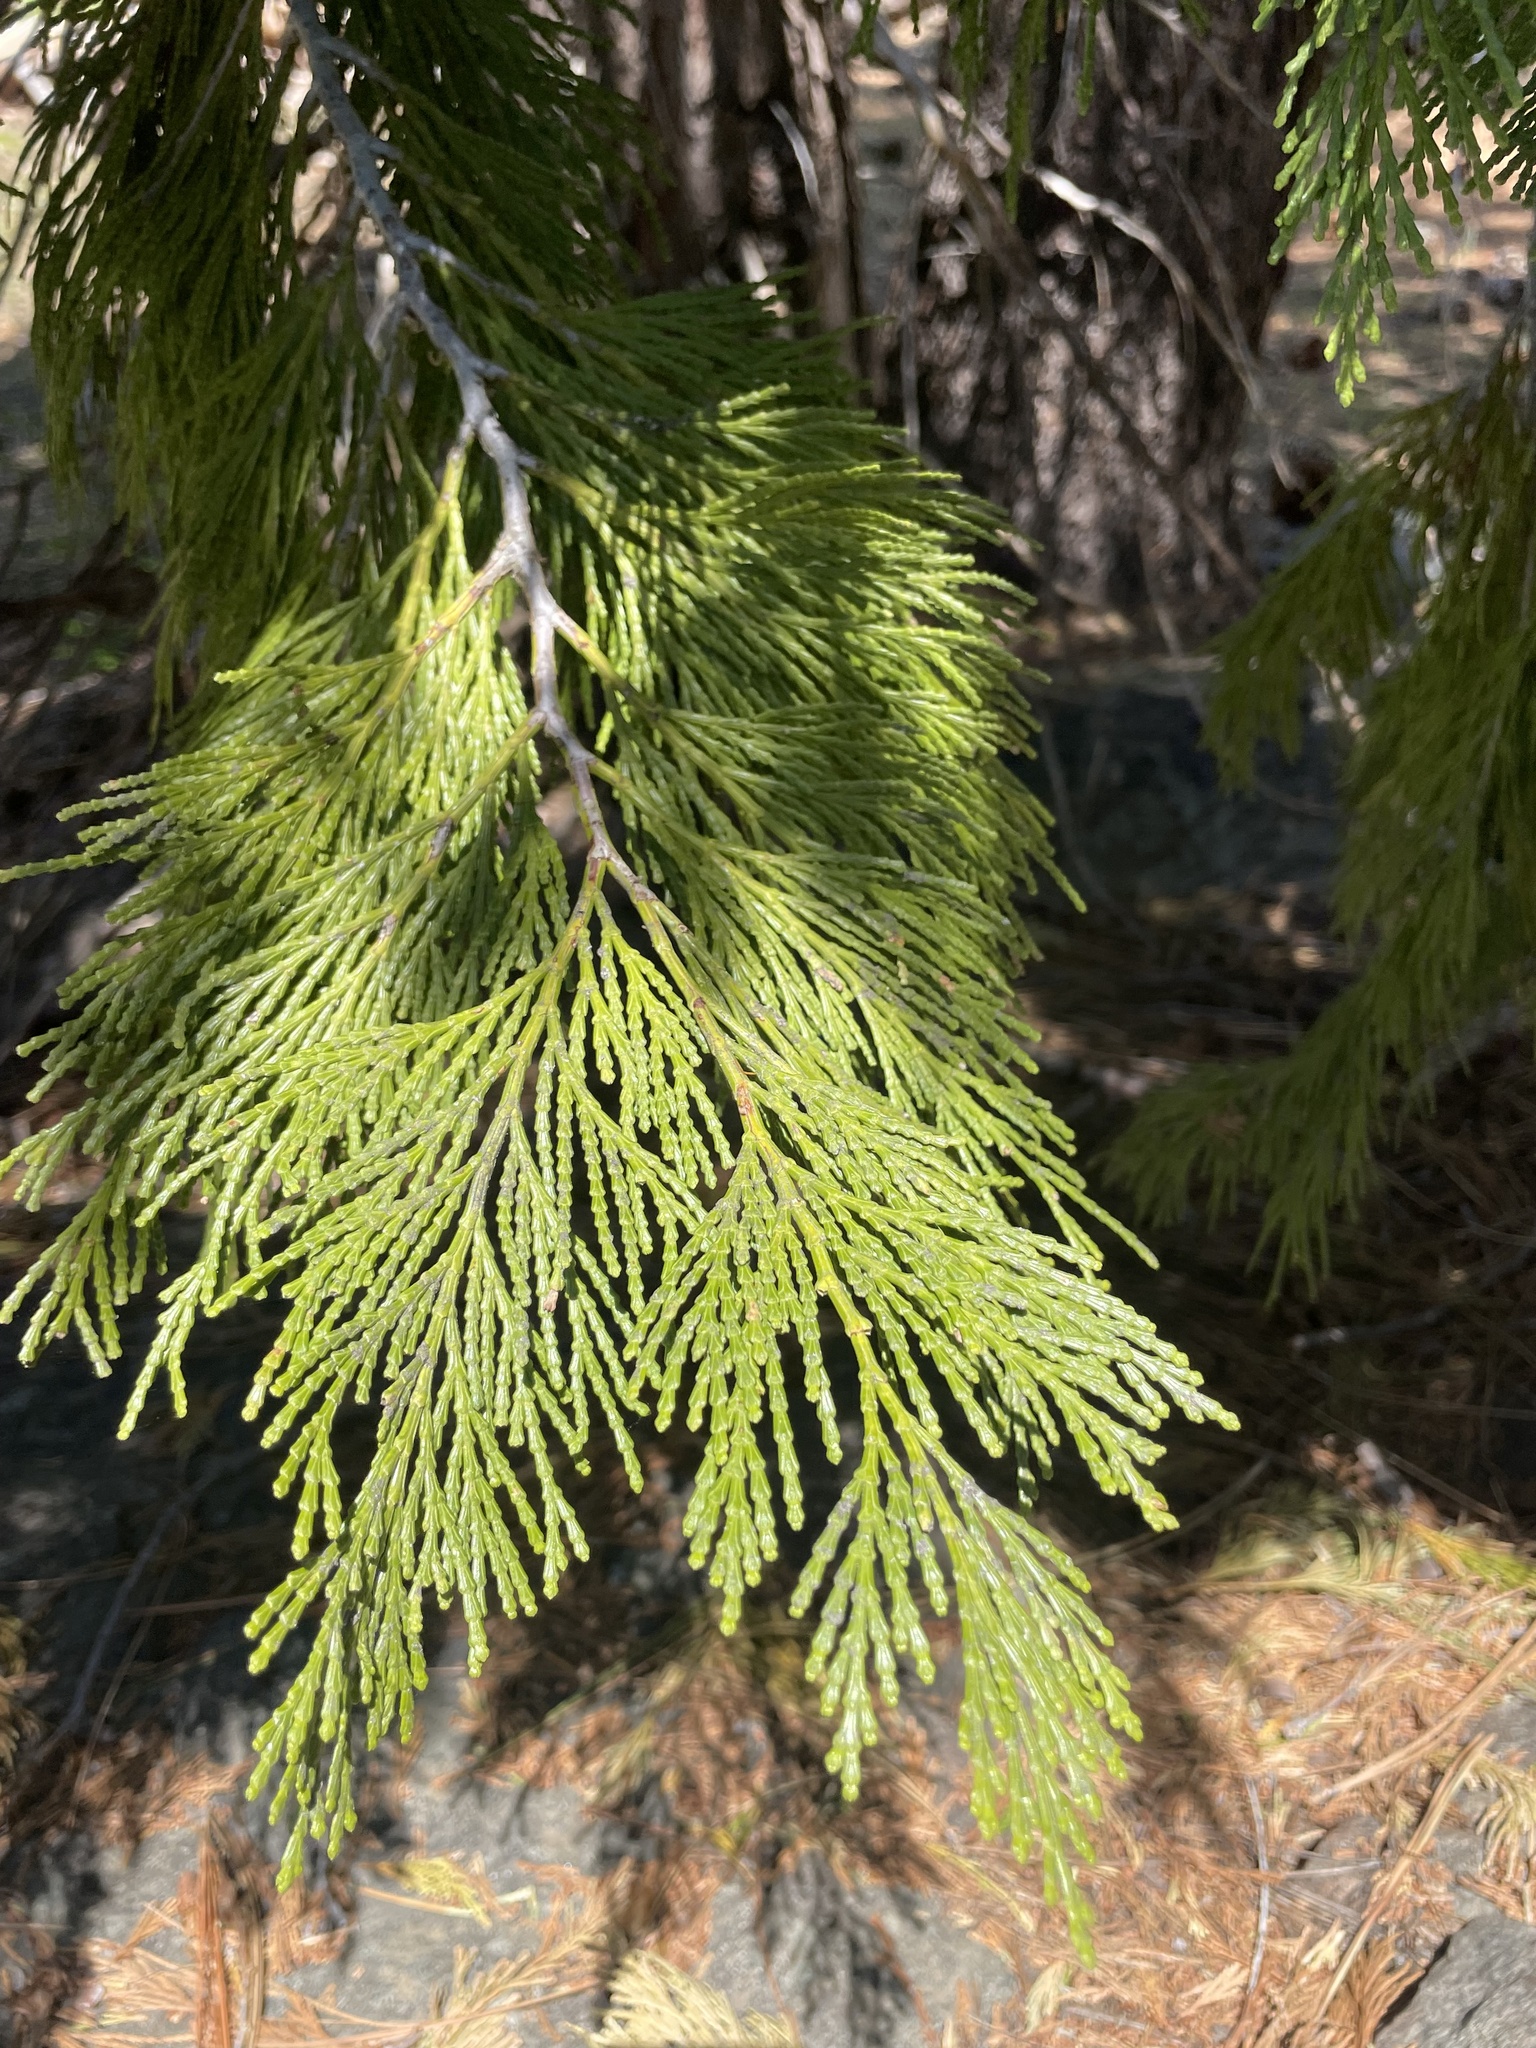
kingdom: Plantae
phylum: Tracheophyta
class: Pinopsida
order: Pinales
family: Cupressaceae
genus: Calocedrus
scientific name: Calocedrus decurrens
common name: Californian incense-cedar
